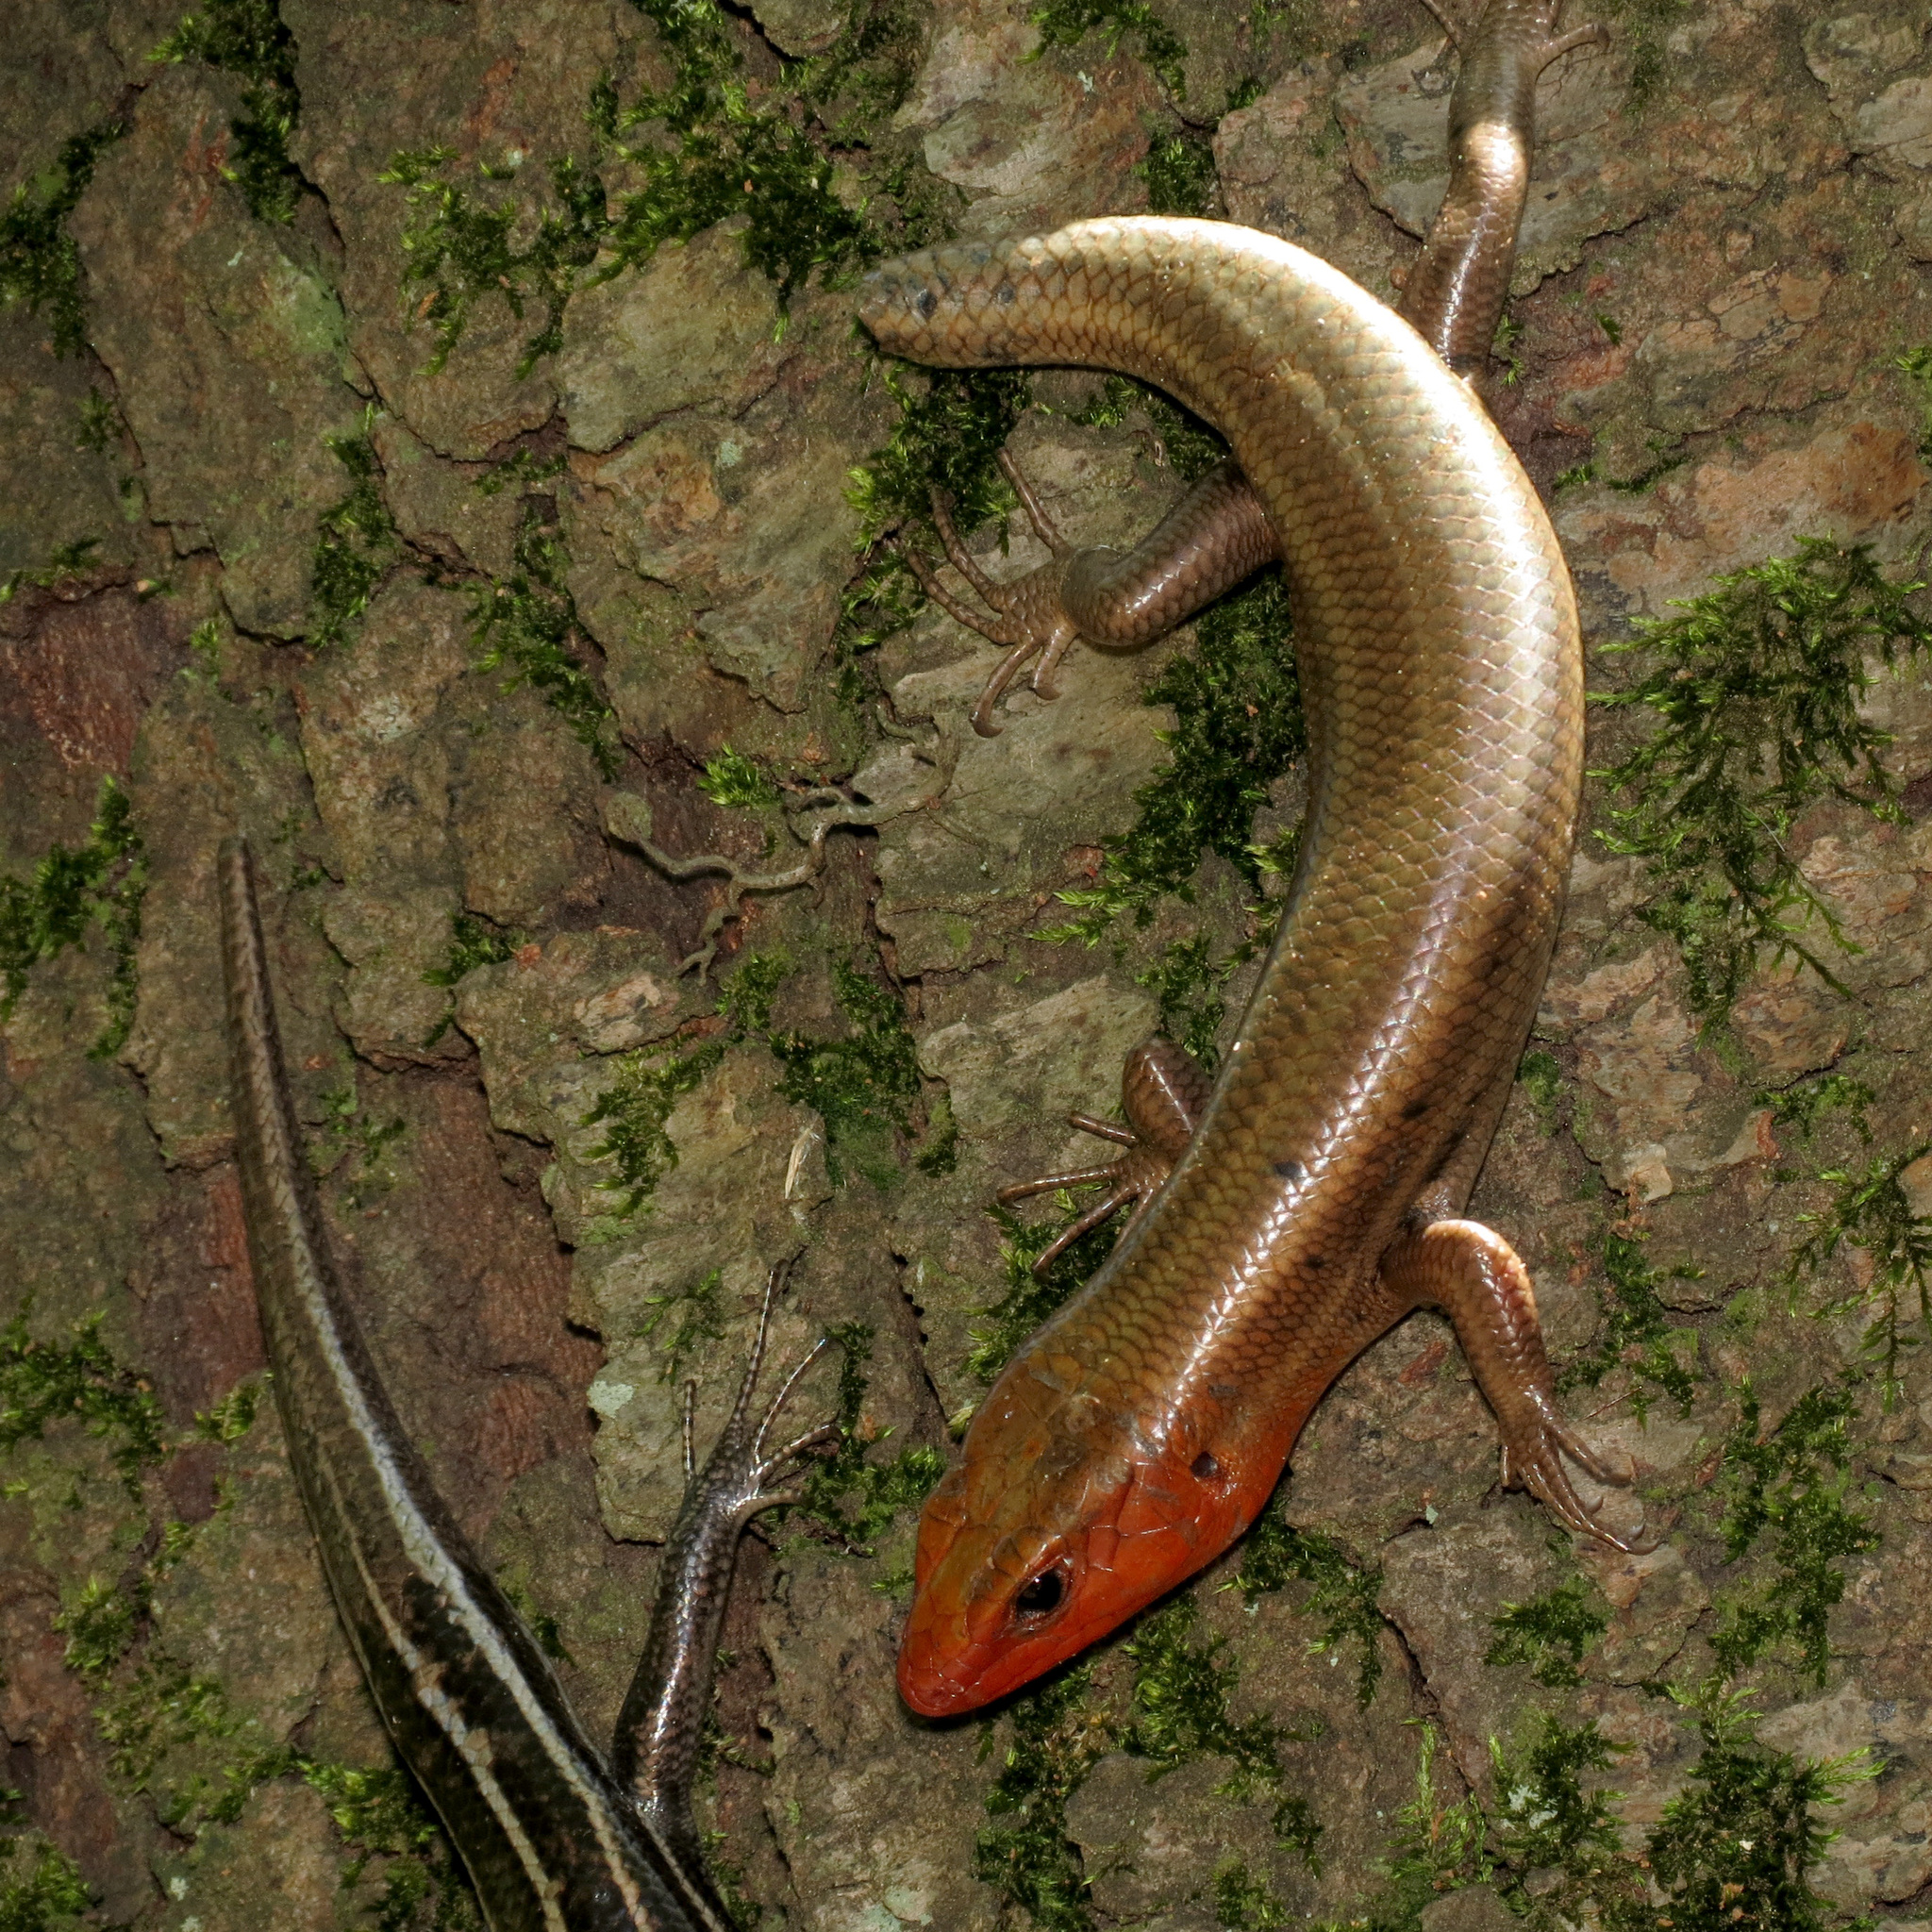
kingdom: Animalia
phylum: Chordata
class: Squamata
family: Scincidae
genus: Plestiodon
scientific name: Plestiodon fasciatus
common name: Five-lined skink
